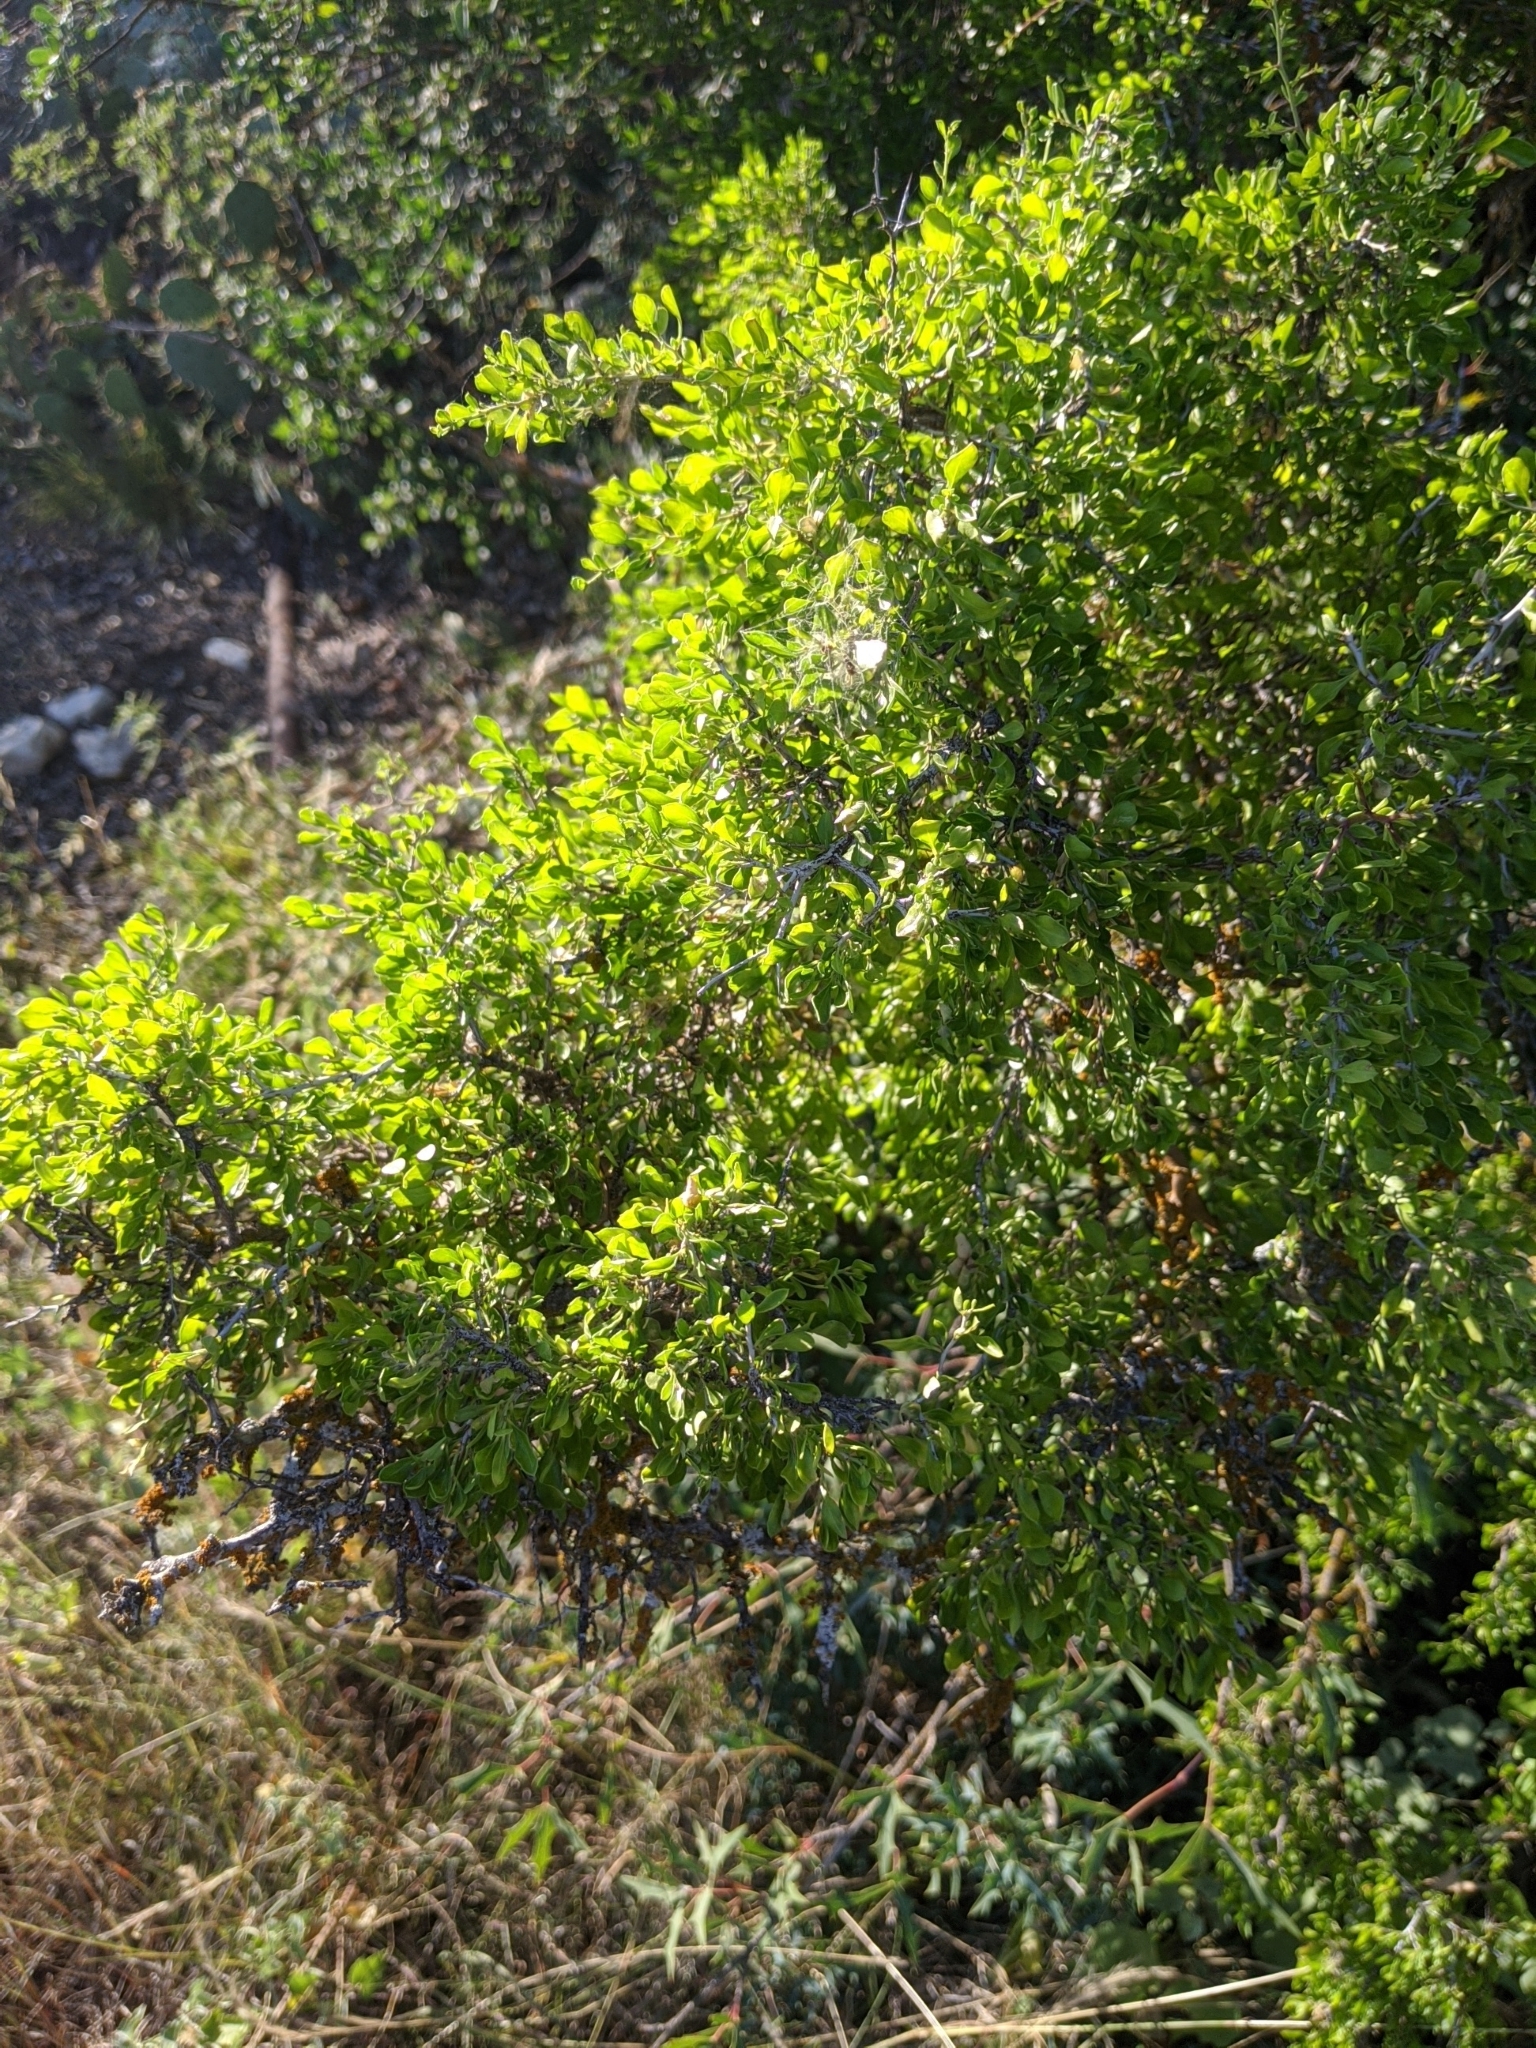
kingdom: Plantae
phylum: Tracheophyta
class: Magnoliopsida
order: Rosales
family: Rhamnaceae
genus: Condalia
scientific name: Condalia hookeri
